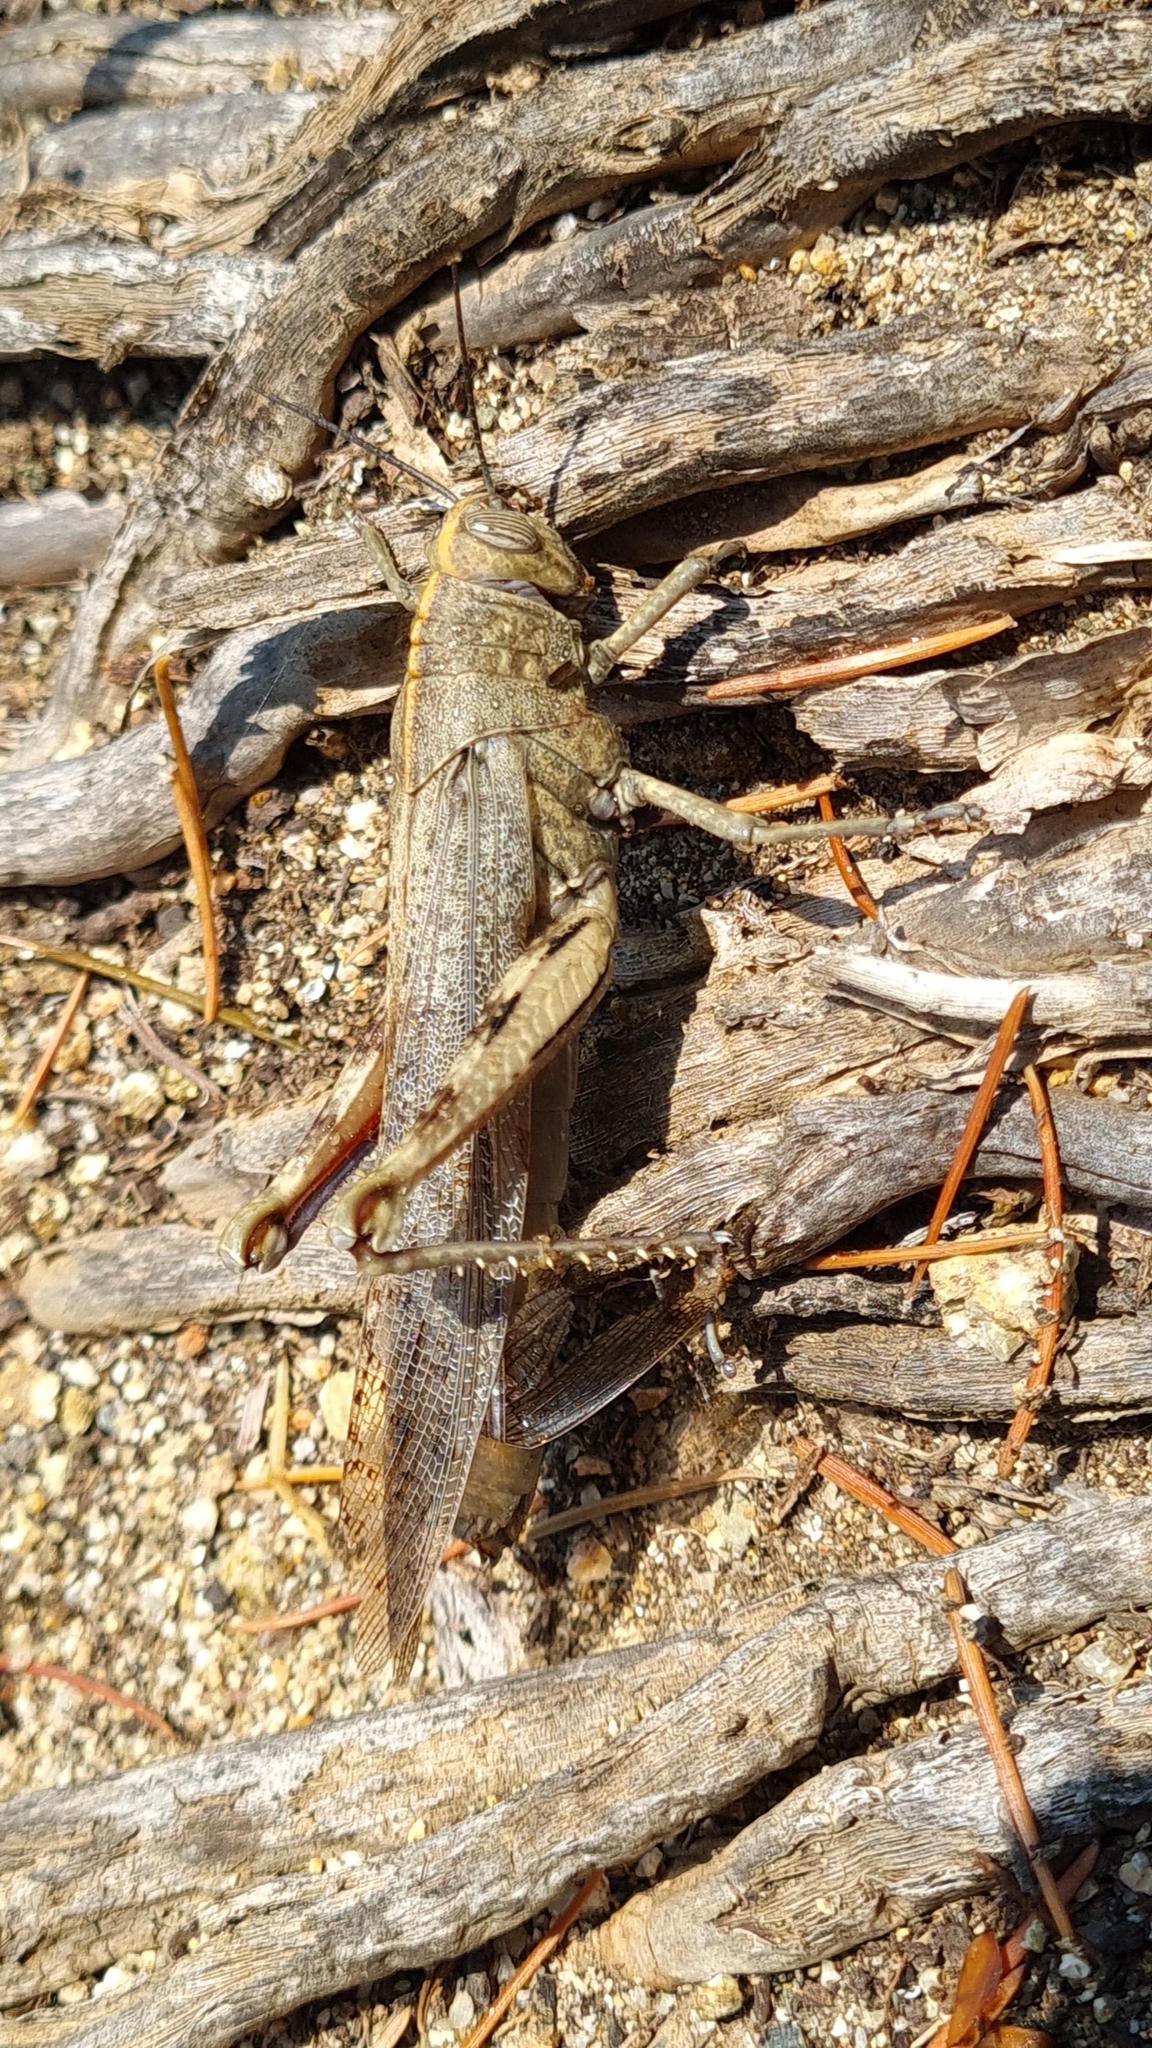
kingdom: Animalia
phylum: Arthropoda
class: Insecta
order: Orthoptera
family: Acrididae
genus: Anacridium
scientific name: Anacridium aegyptium
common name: Egyptian grasshopper
